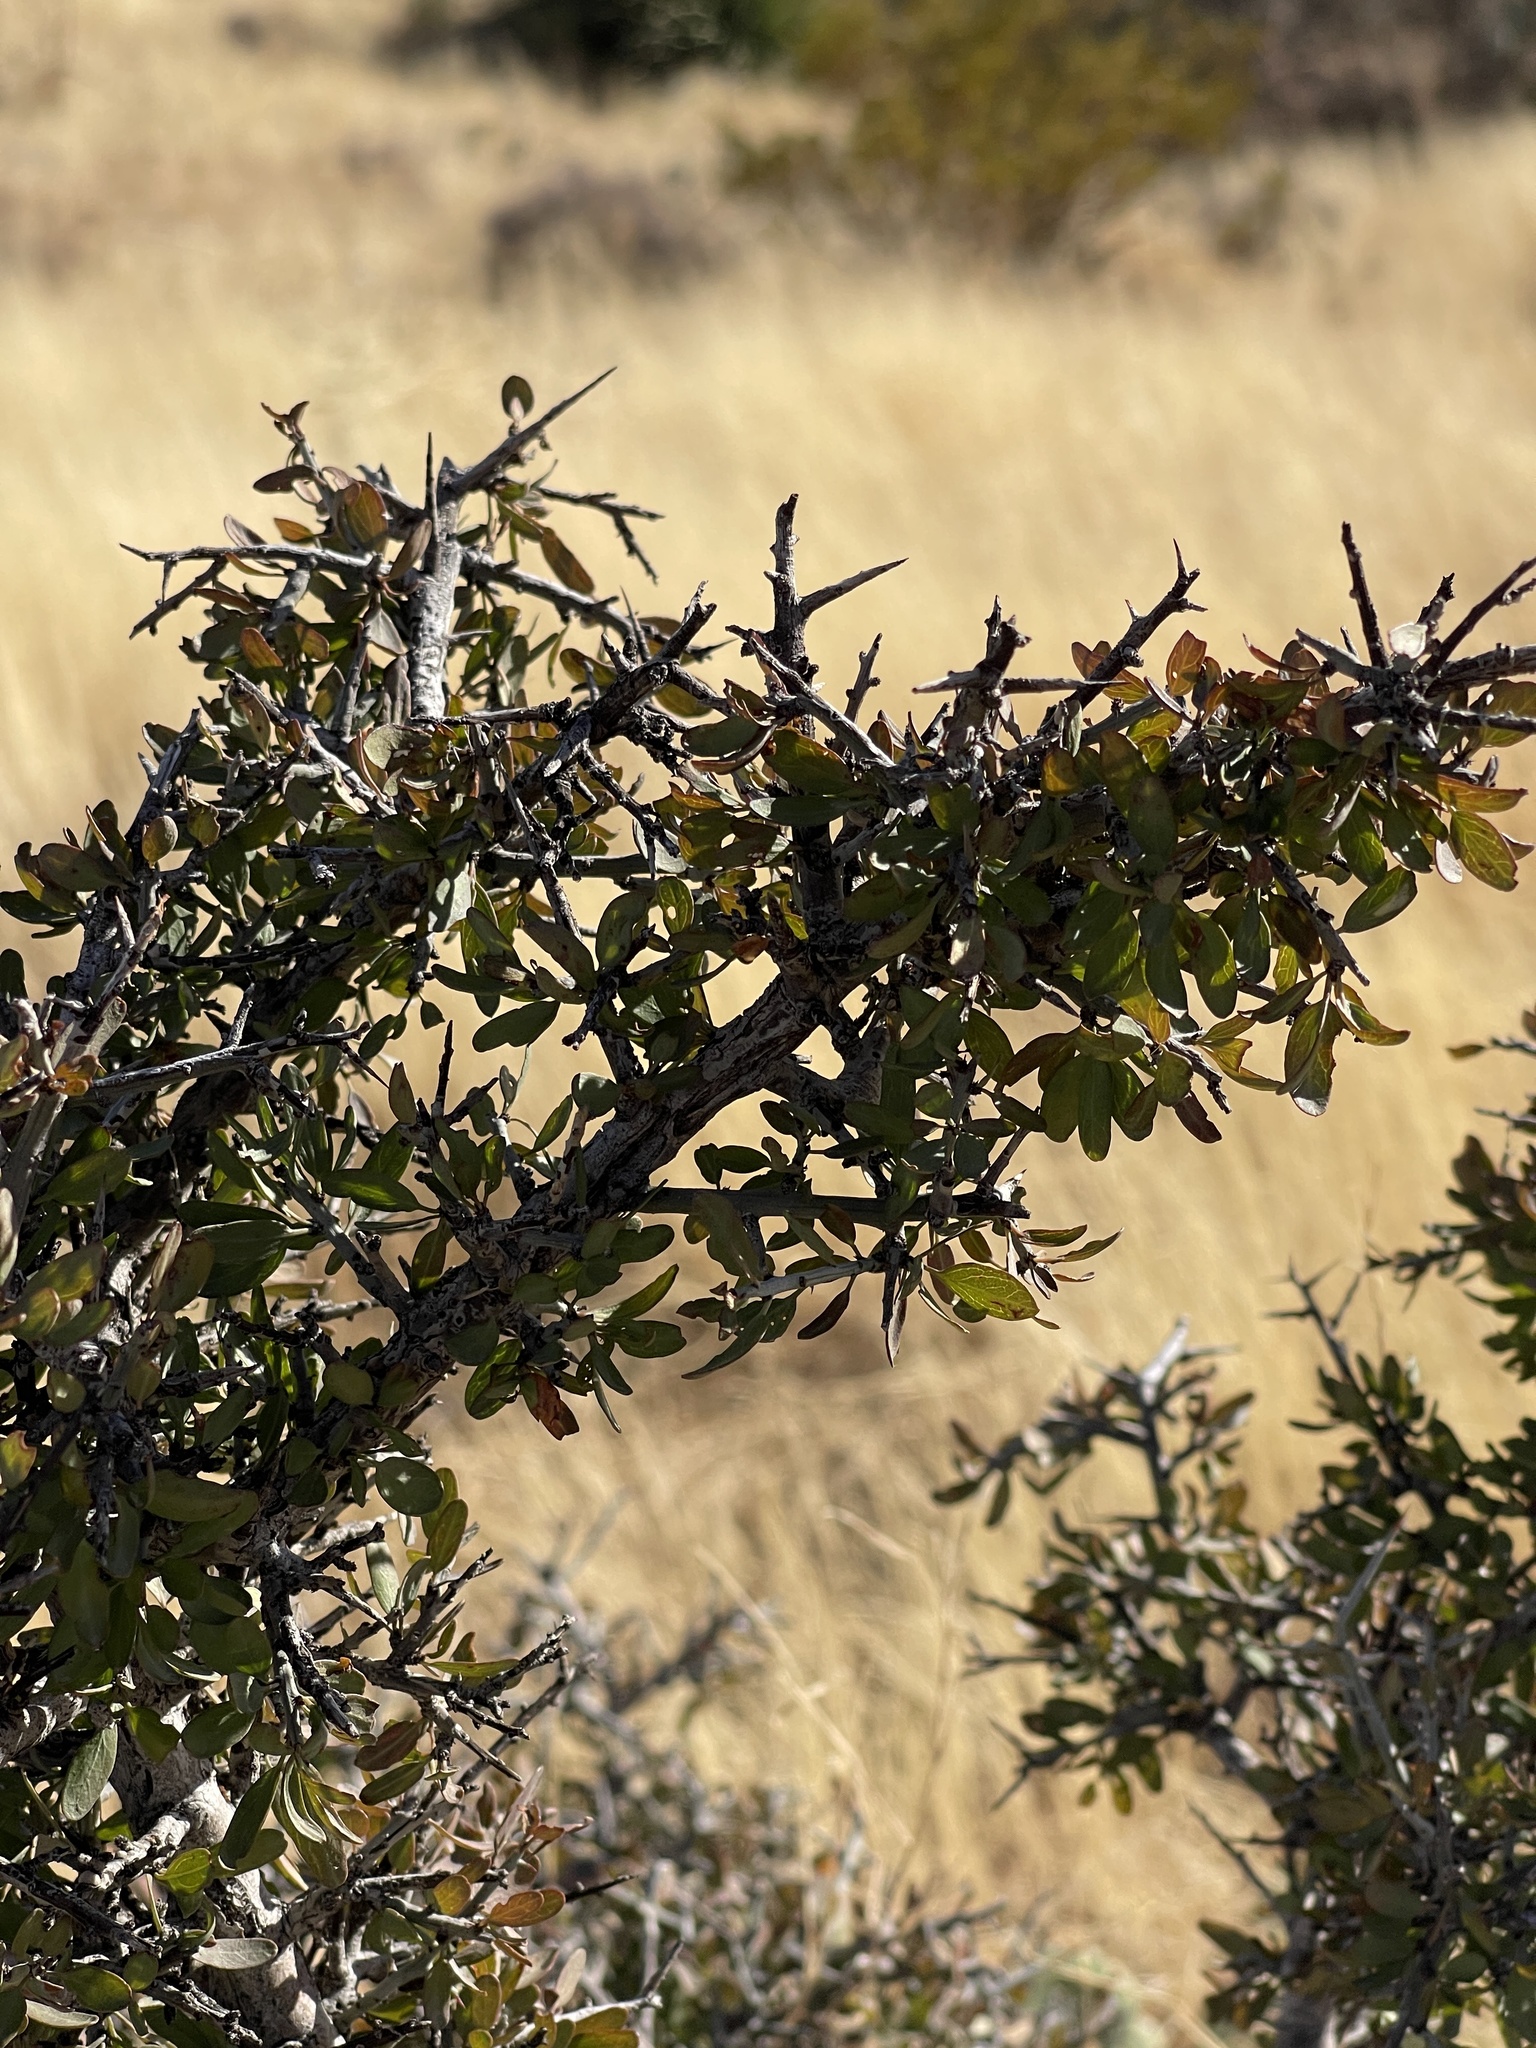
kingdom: Plantae
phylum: Tracheophyta
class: Magnoliopsida
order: Rosales
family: Rhamnaceae
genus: Sarcomphalus
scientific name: Sarcomphalus obtusifolius
